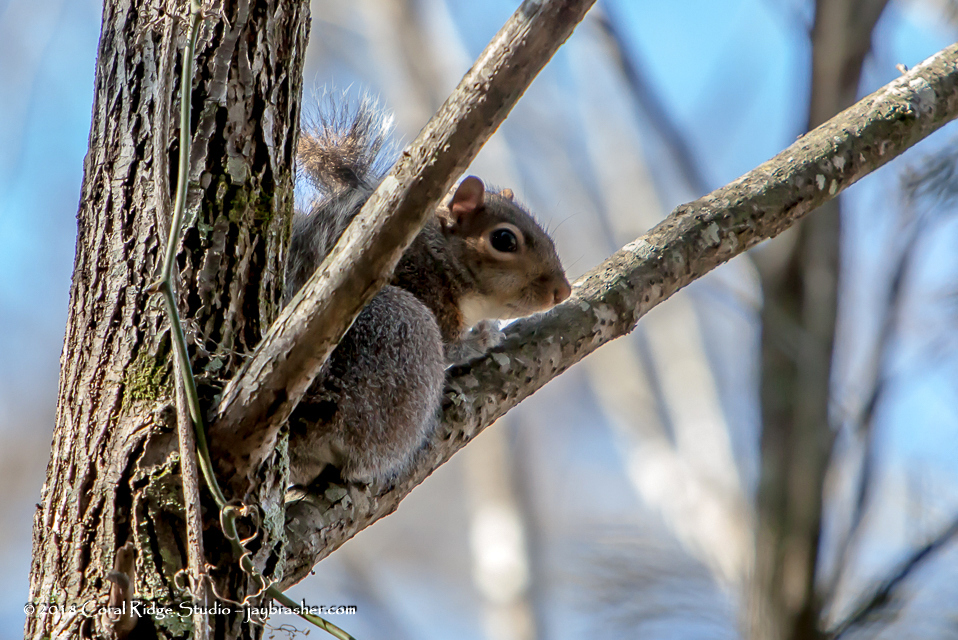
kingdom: Animalia
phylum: Chordata
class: Mammalia
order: Rodentia
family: Sciuridae
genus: Sciurus
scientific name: Sciurus carolinensis
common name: Eastern gray squirrel
